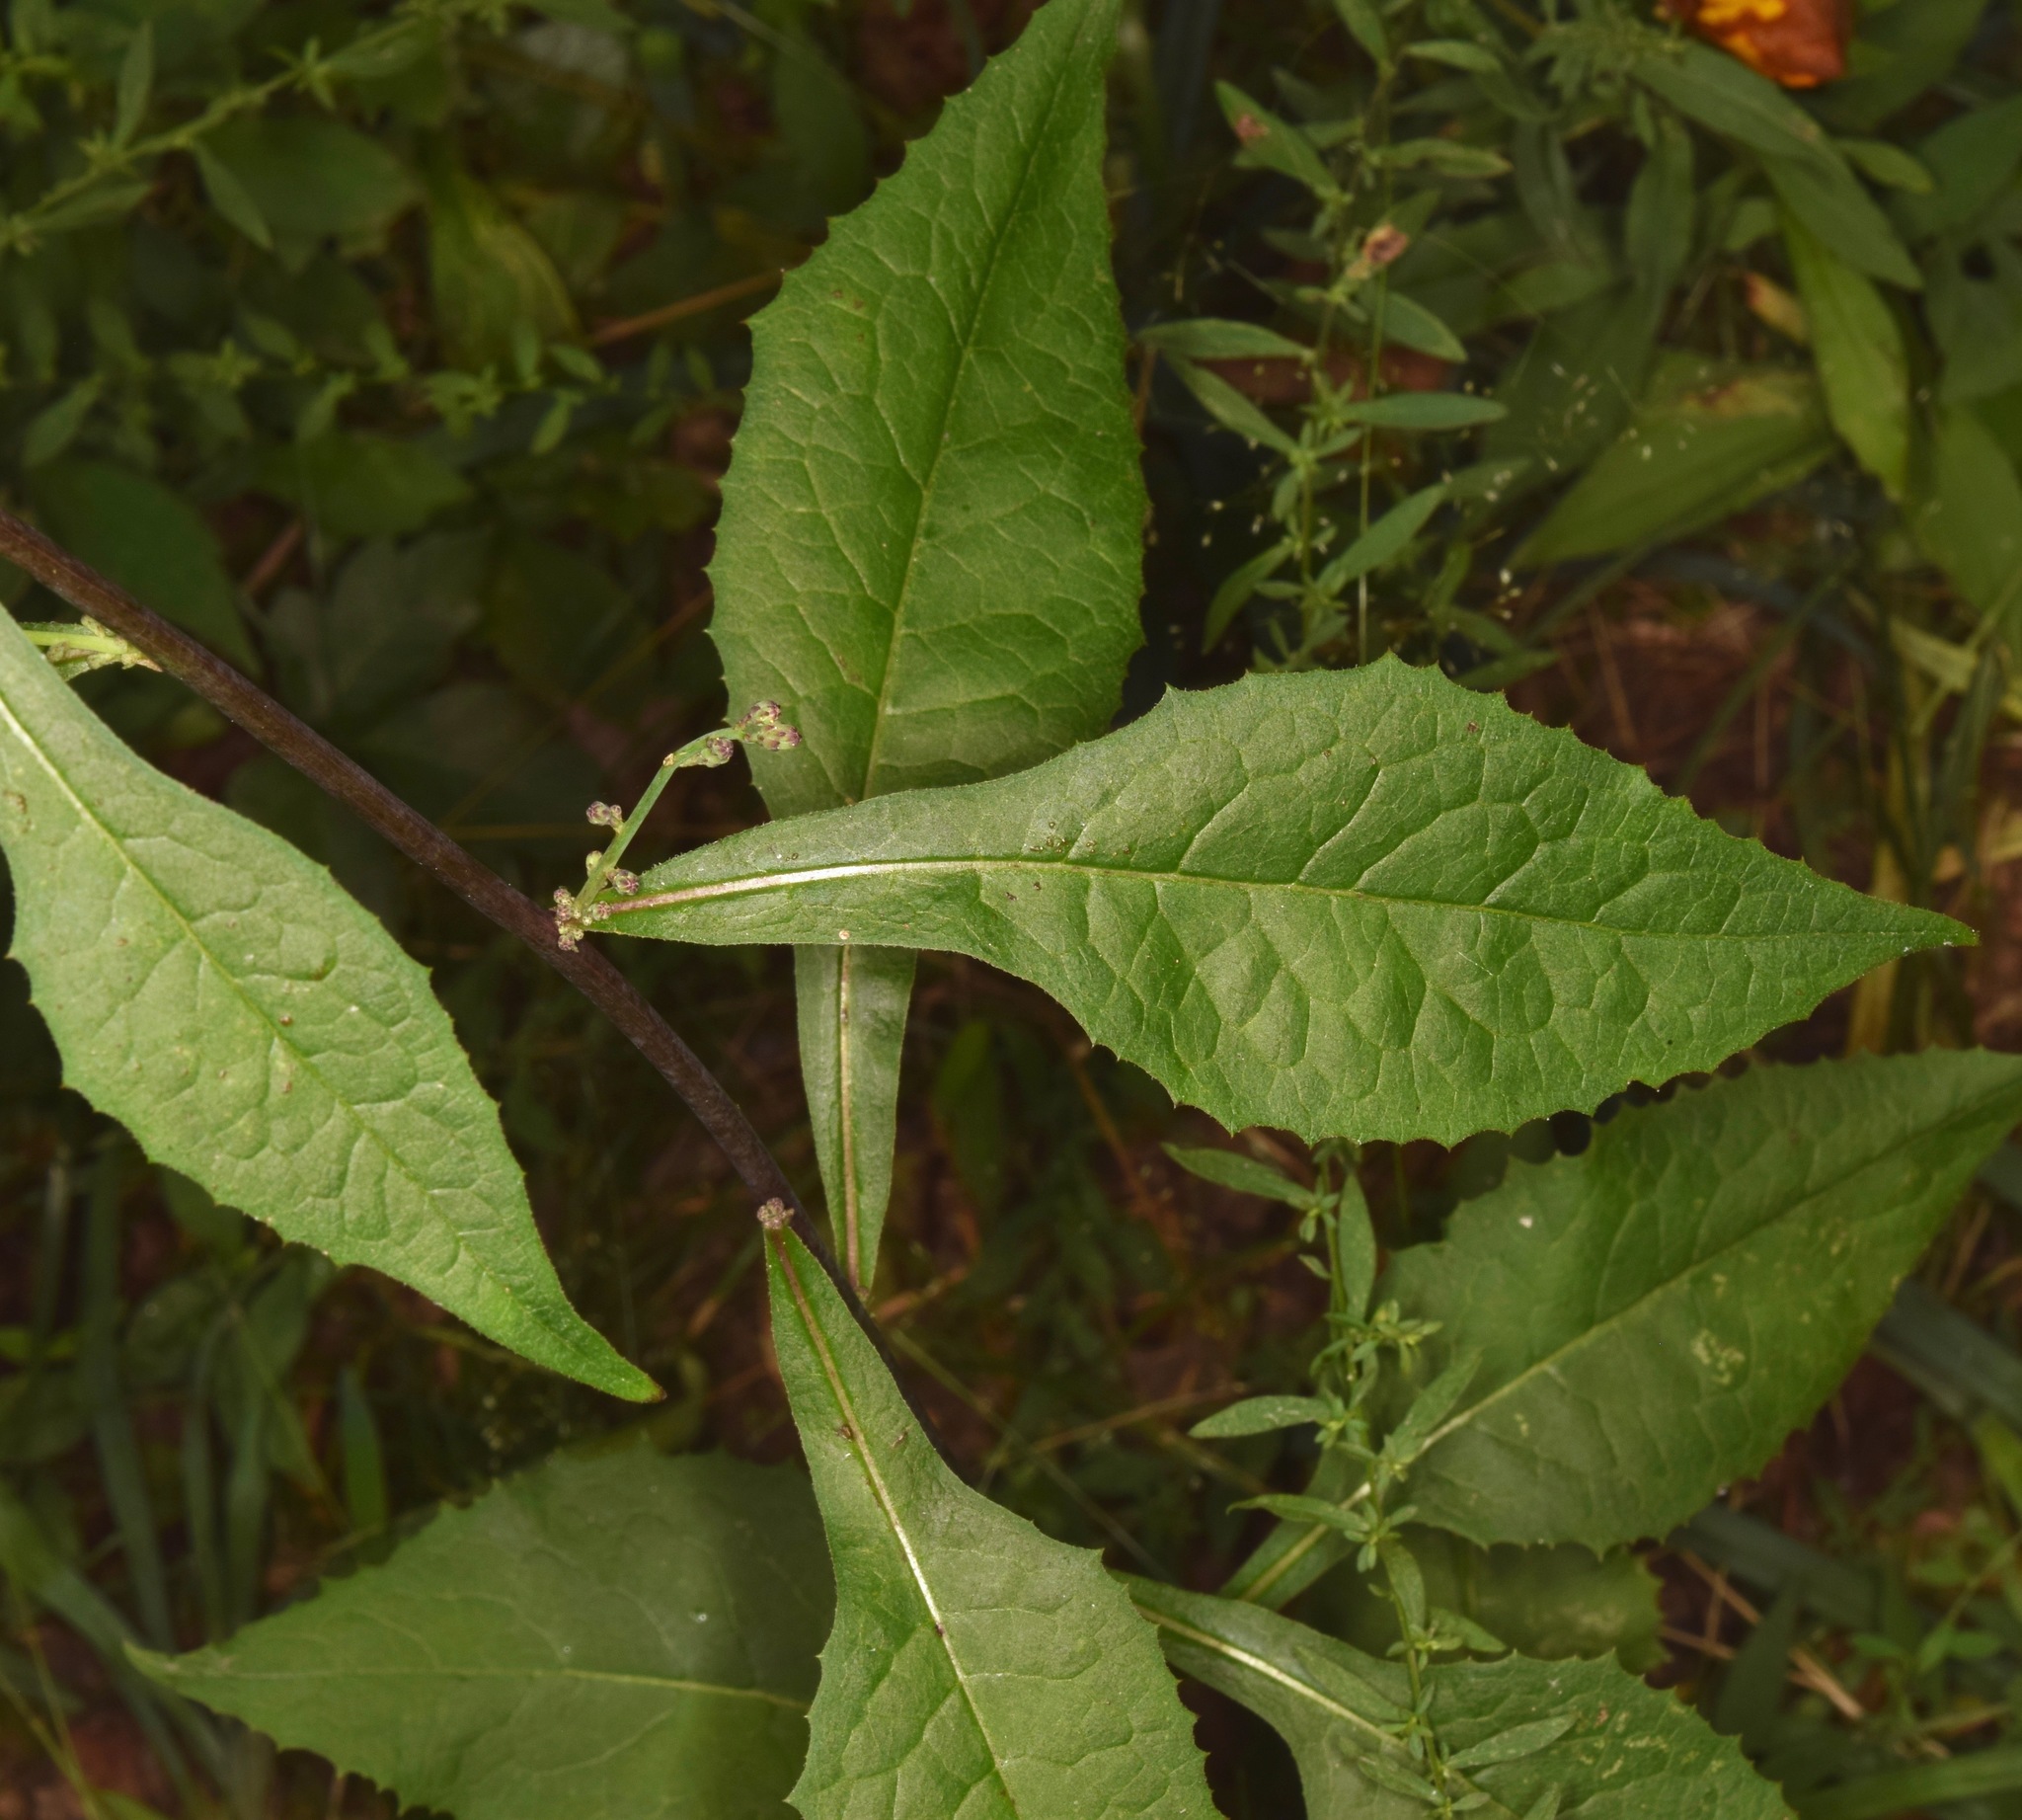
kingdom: Plantae
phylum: Tracheophyta
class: Magnoliopsida
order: Asterales
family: Asteraceae
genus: Lactuca
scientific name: Lactuca floridana
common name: Woodland lettuce
